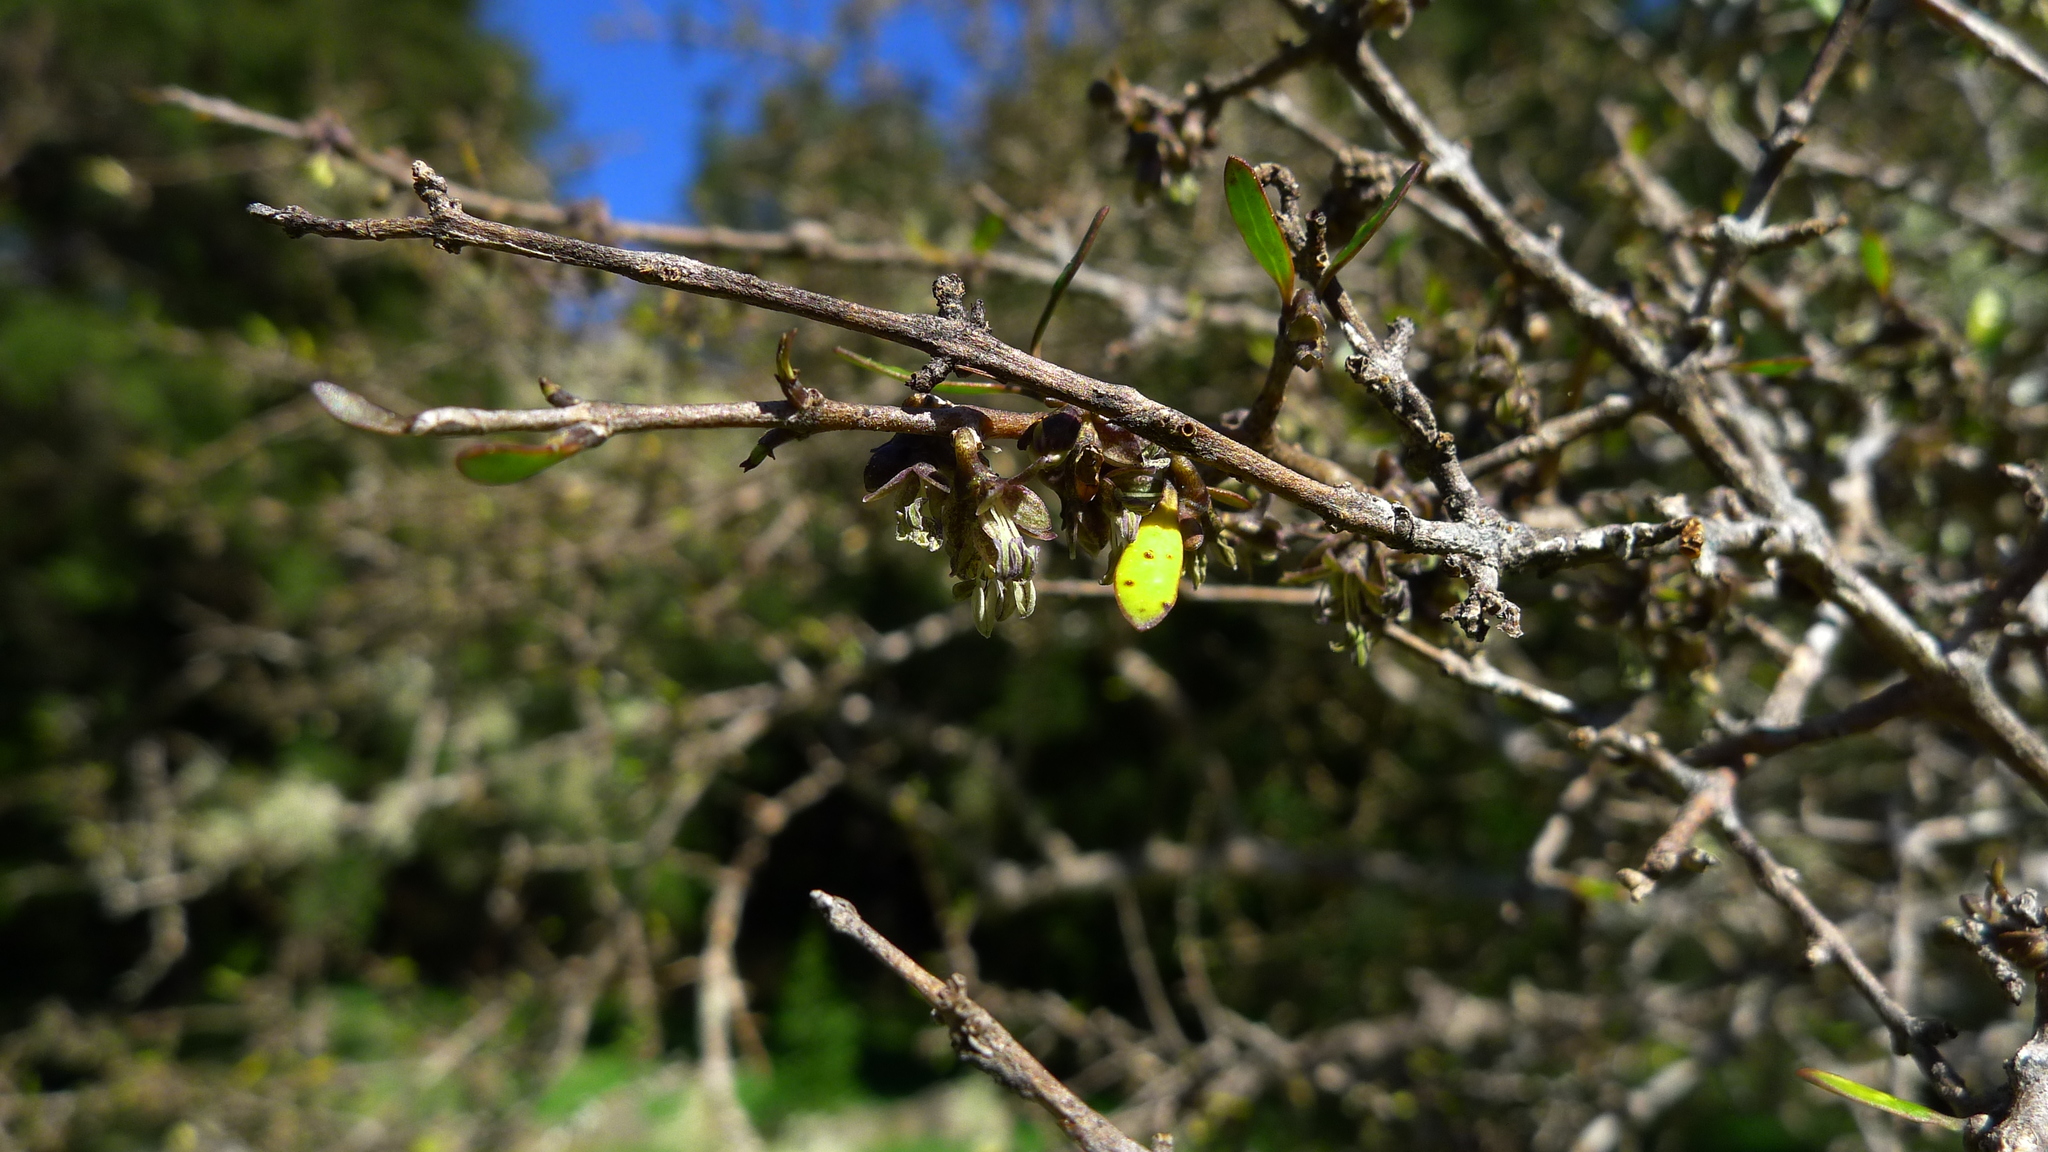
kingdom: Plantae
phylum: Tracheophyta
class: Magnoliopsida
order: Gentianales
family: Rubiaceae
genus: Coprosma
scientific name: Coprosma propinqua
